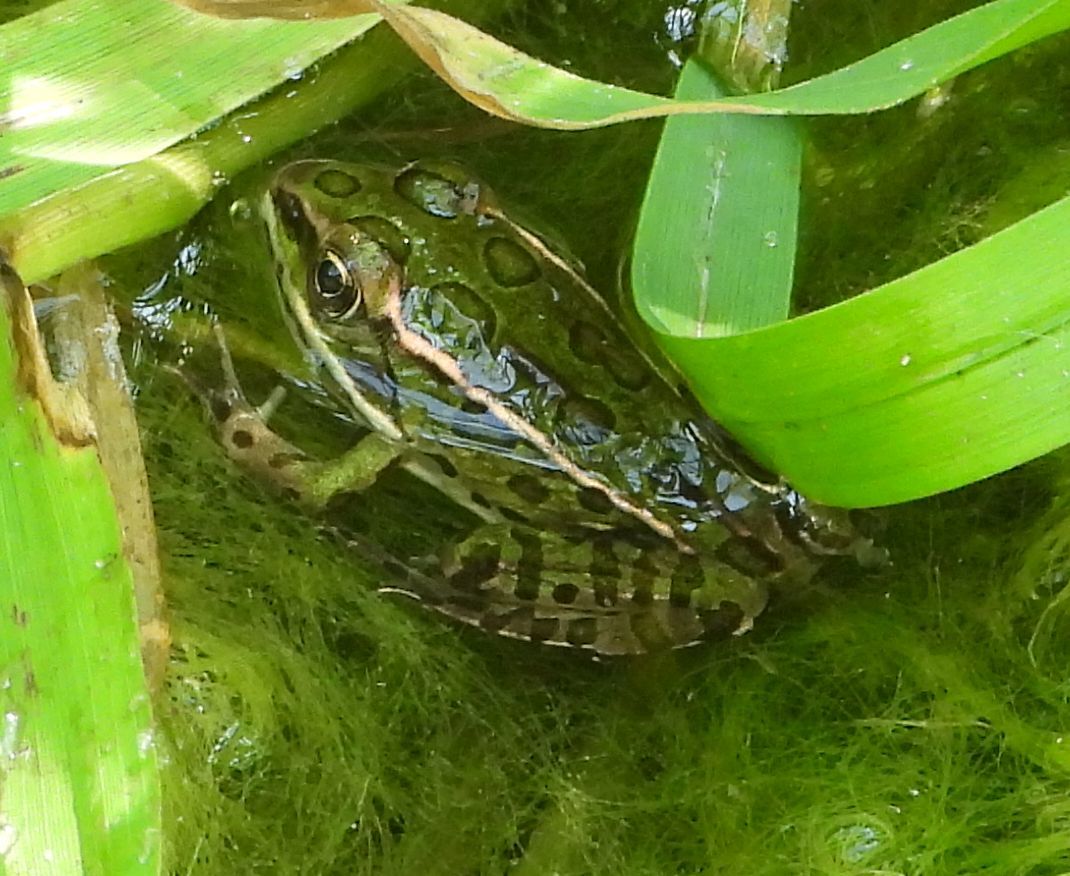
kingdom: Animalia
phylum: Chordata
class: Amphibia
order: Anura
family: Ranidae
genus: Lithobates
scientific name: Lithobates pipiens
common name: Northern leopard frog
